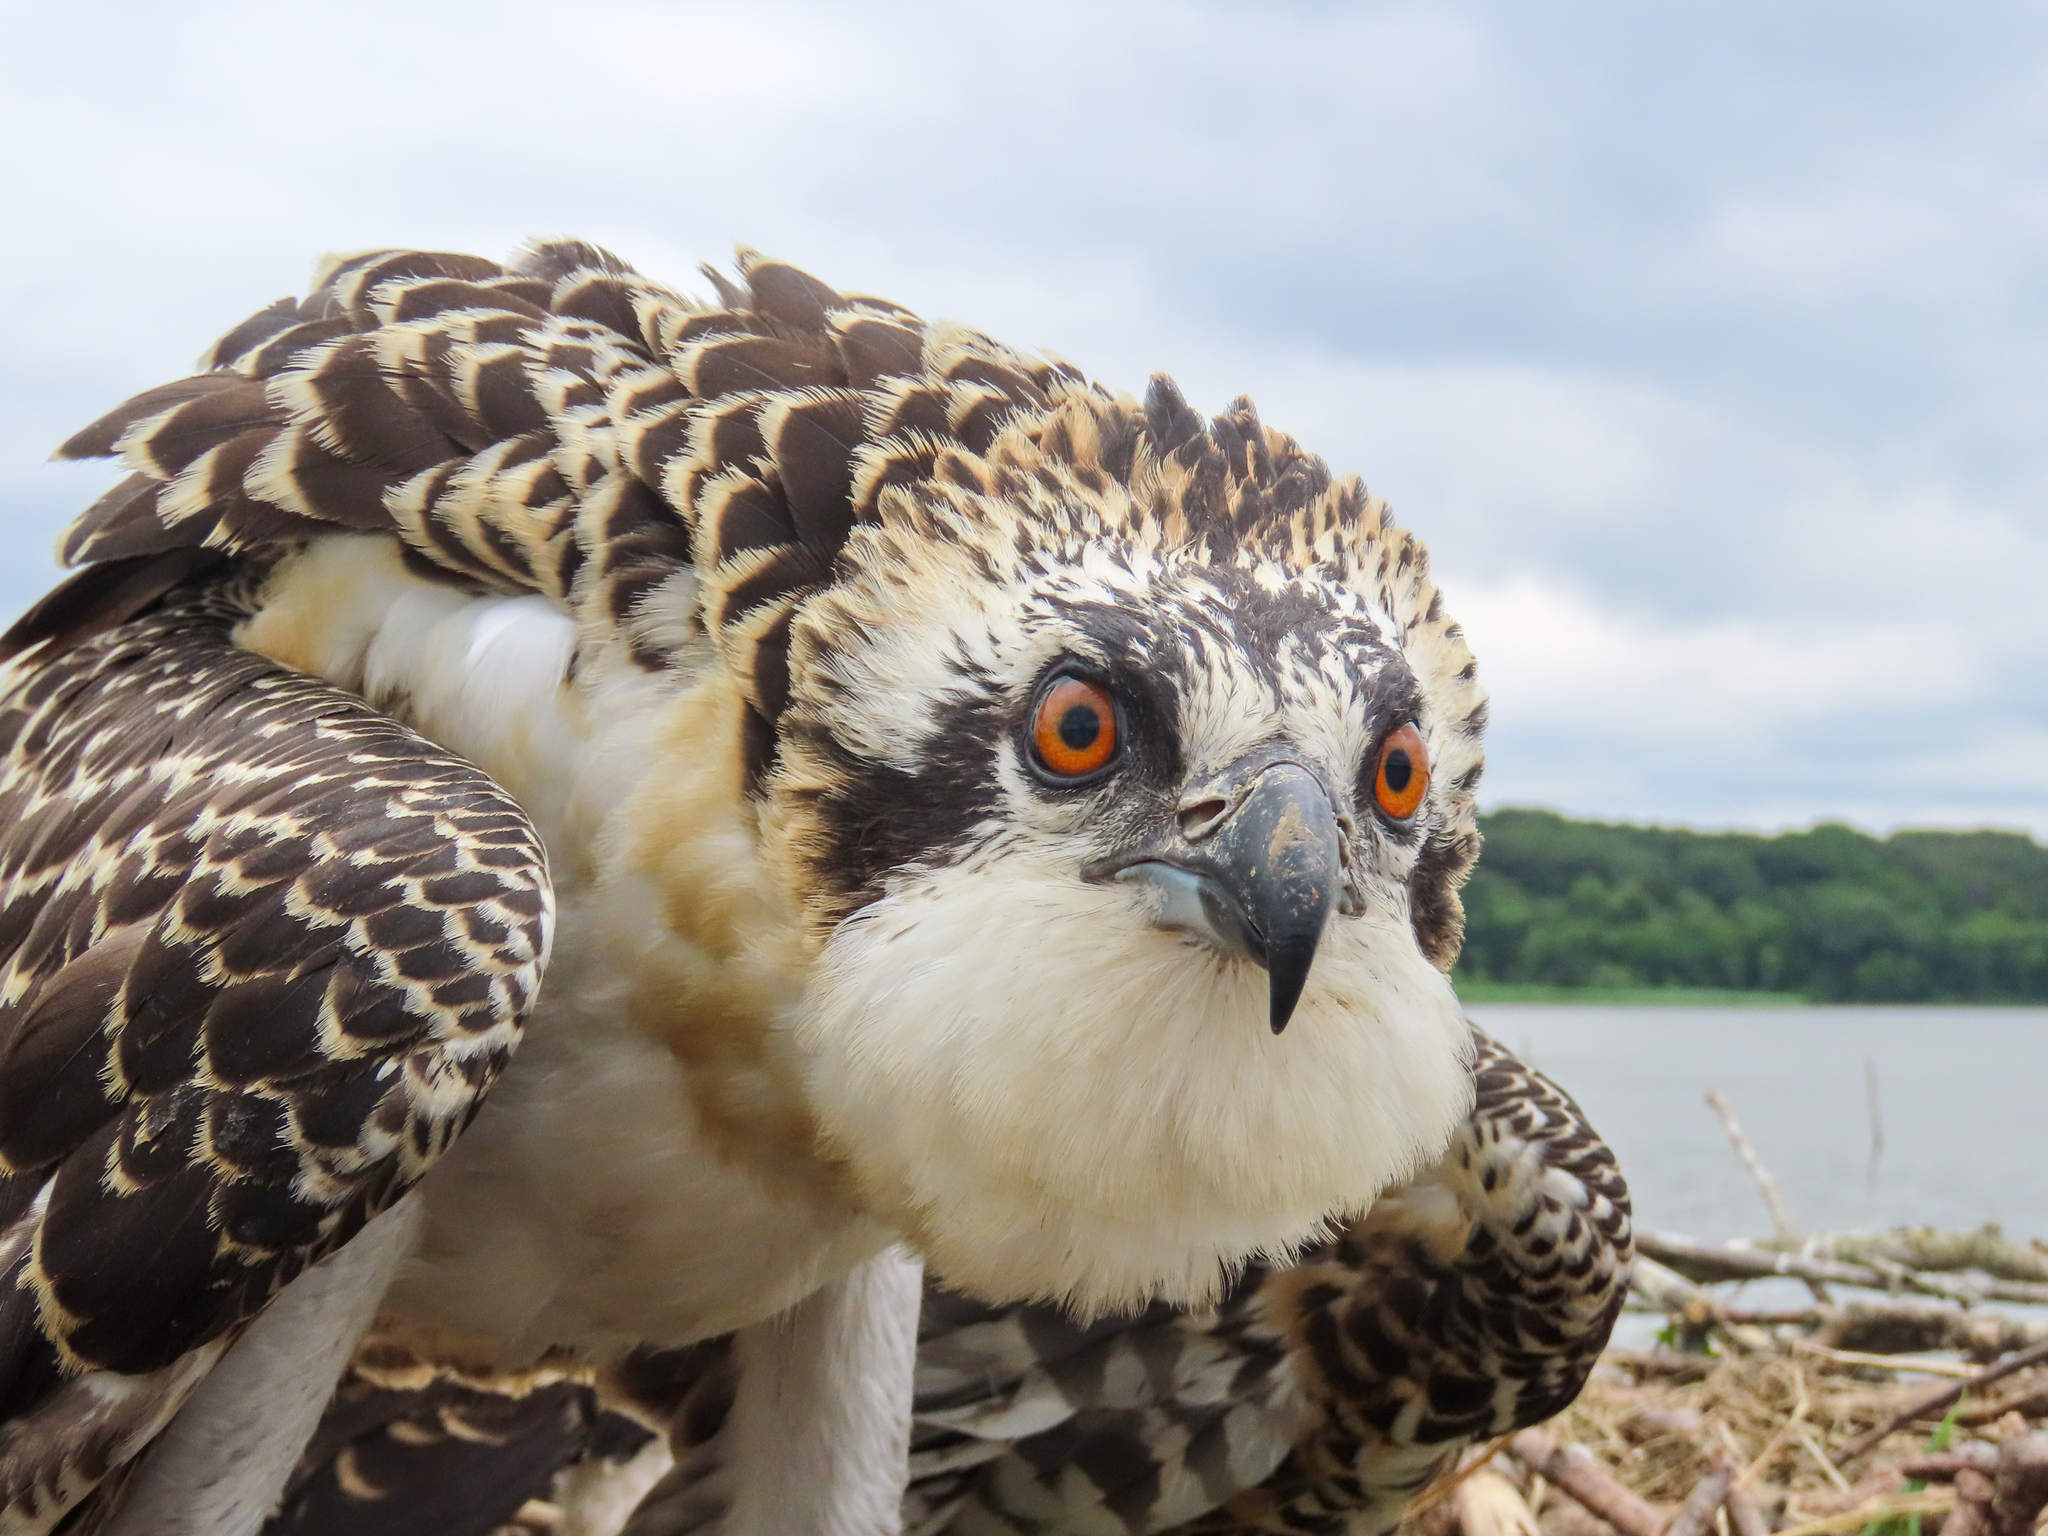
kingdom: Animalia
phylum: Chordata
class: Aves
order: Accipitriformes
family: Pandionidae
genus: Pandion
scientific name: Pandion haliaetus
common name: Osprey
